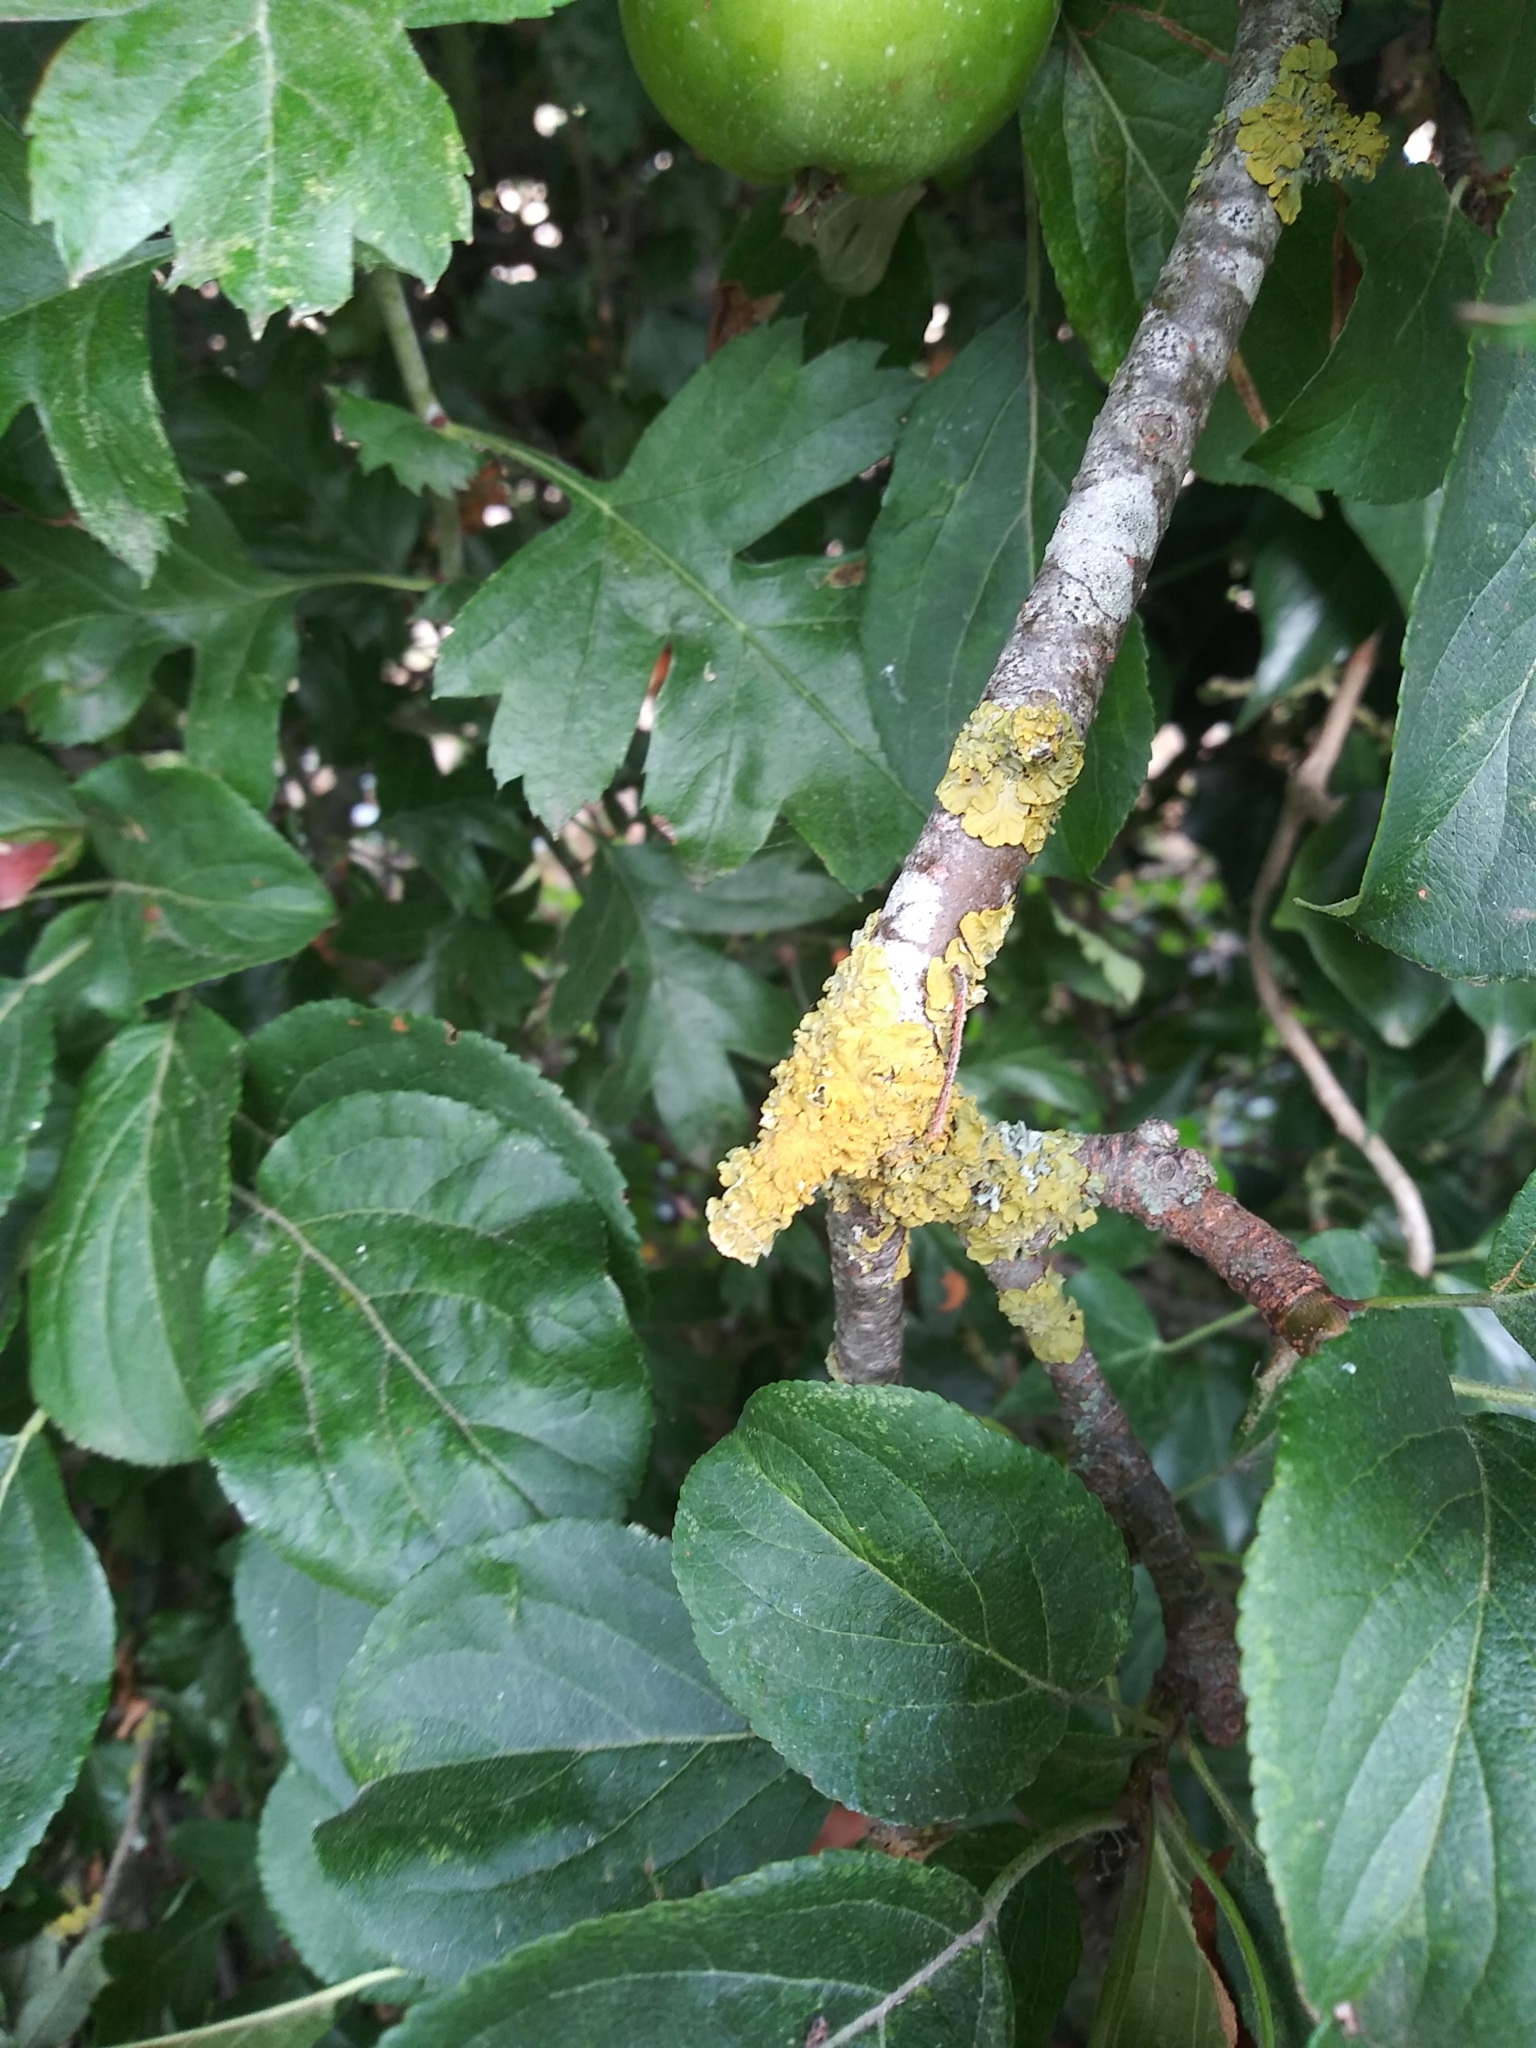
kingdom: Fungi
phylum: Ascomycota
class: Lecanoromycetes
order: Teloschistales
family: Teloschistaceae
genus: Xanthoria
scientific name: Xanthoria parietina
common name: Common orange lichen
